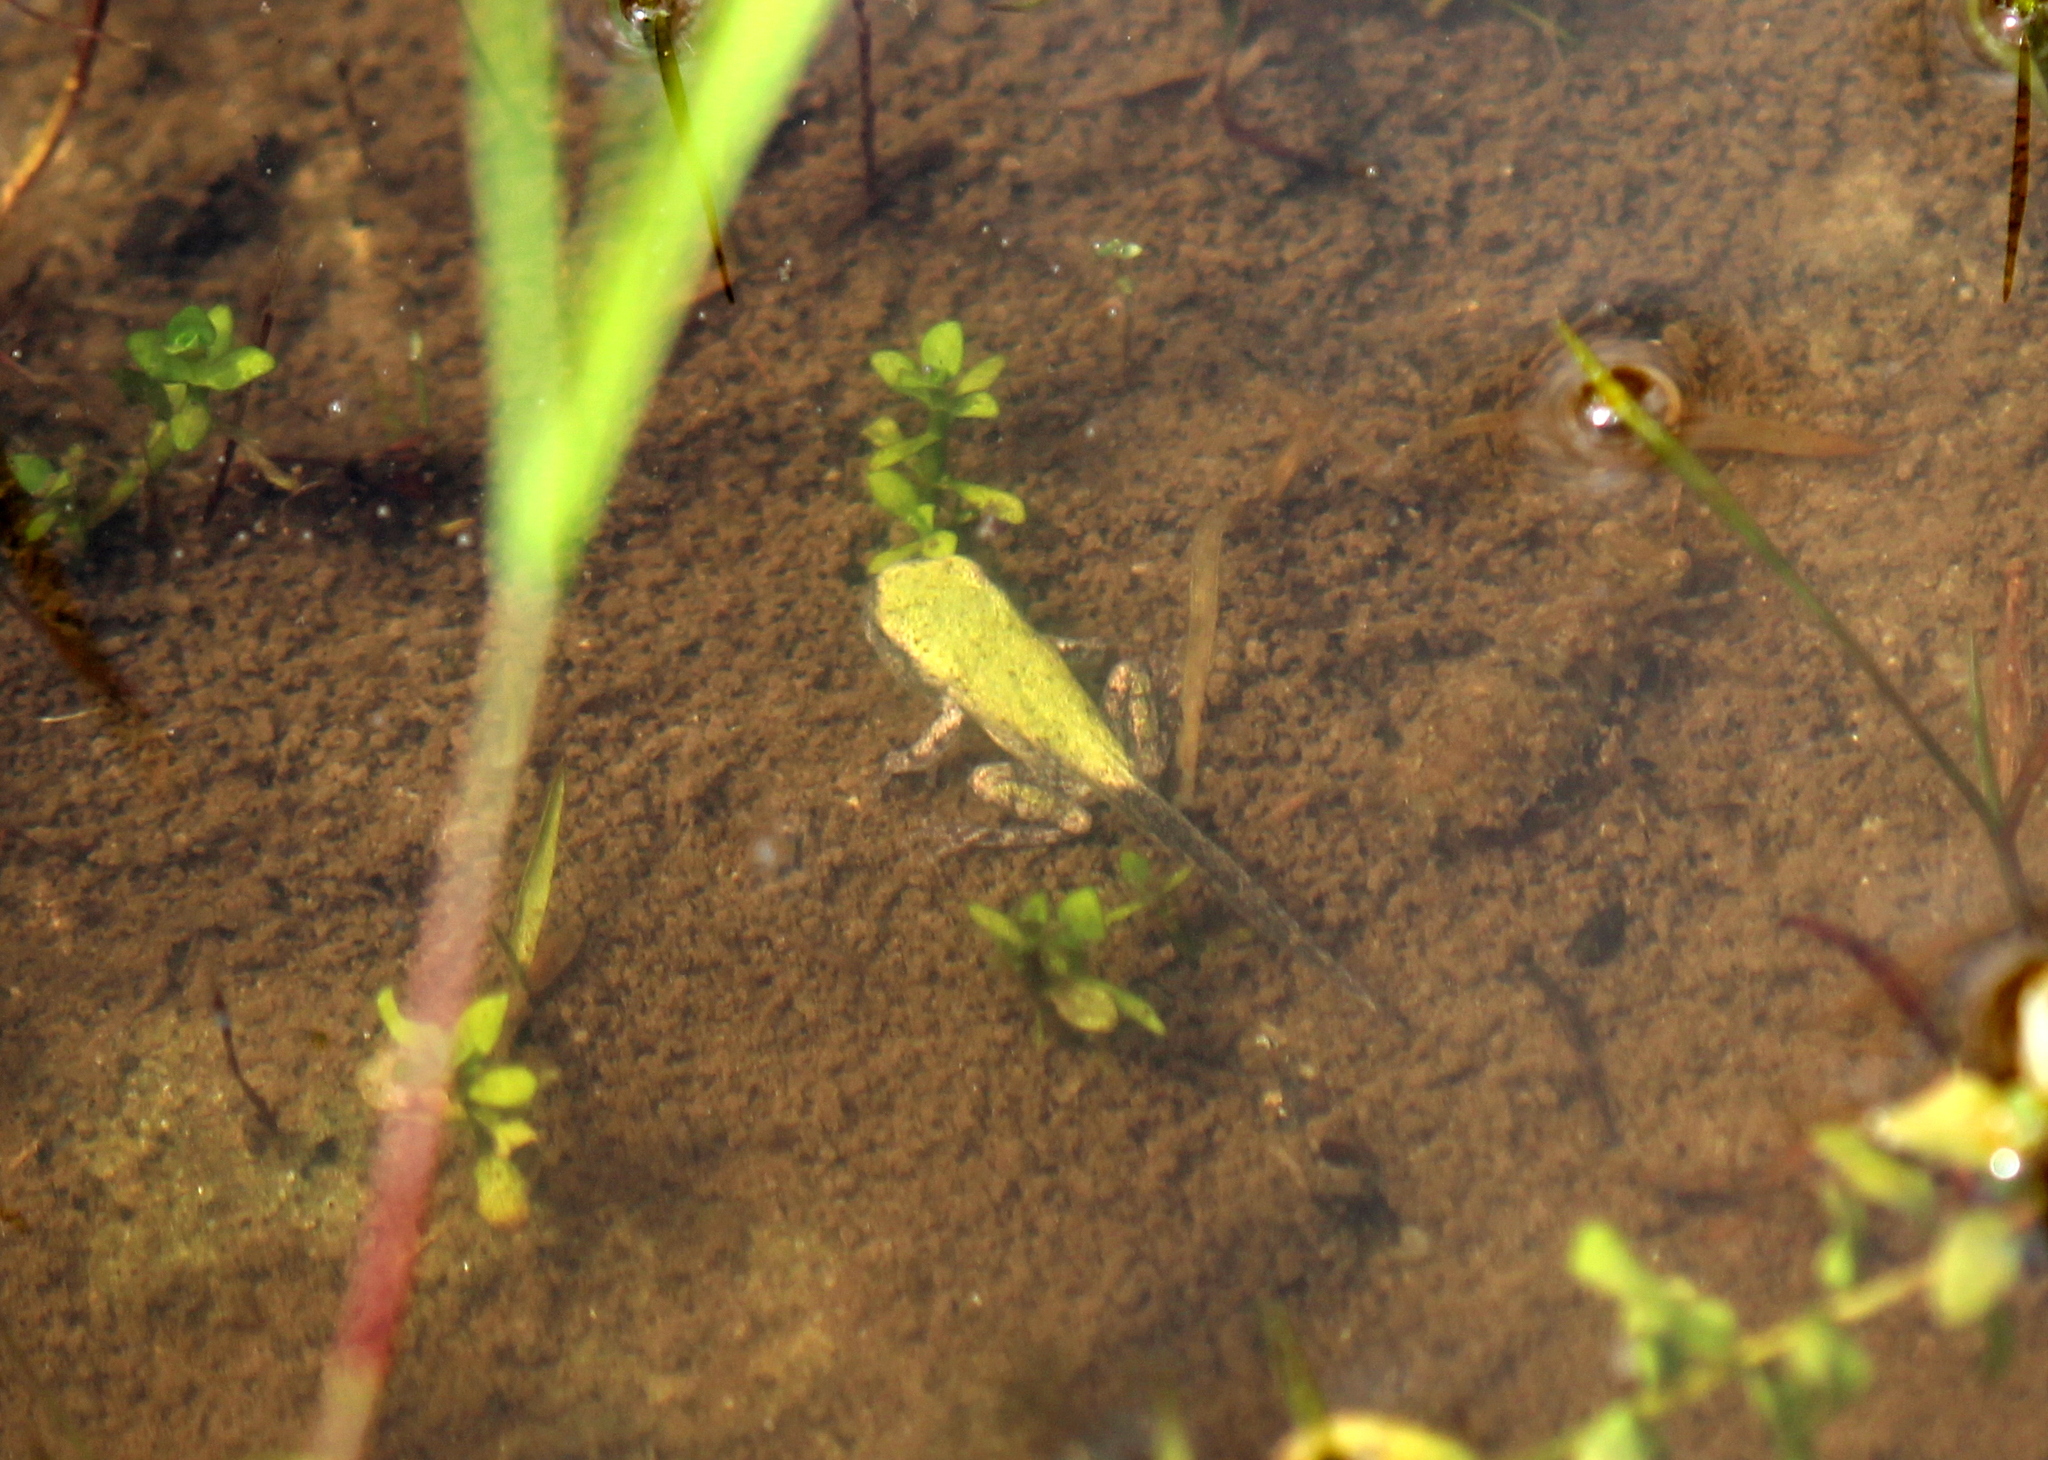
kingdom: Animalia
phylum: Chordata
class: Amphibia
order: Anura
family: Hylidae
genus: Dryophytes
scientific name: Dryophytes versicolor
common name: Gray treefrog
